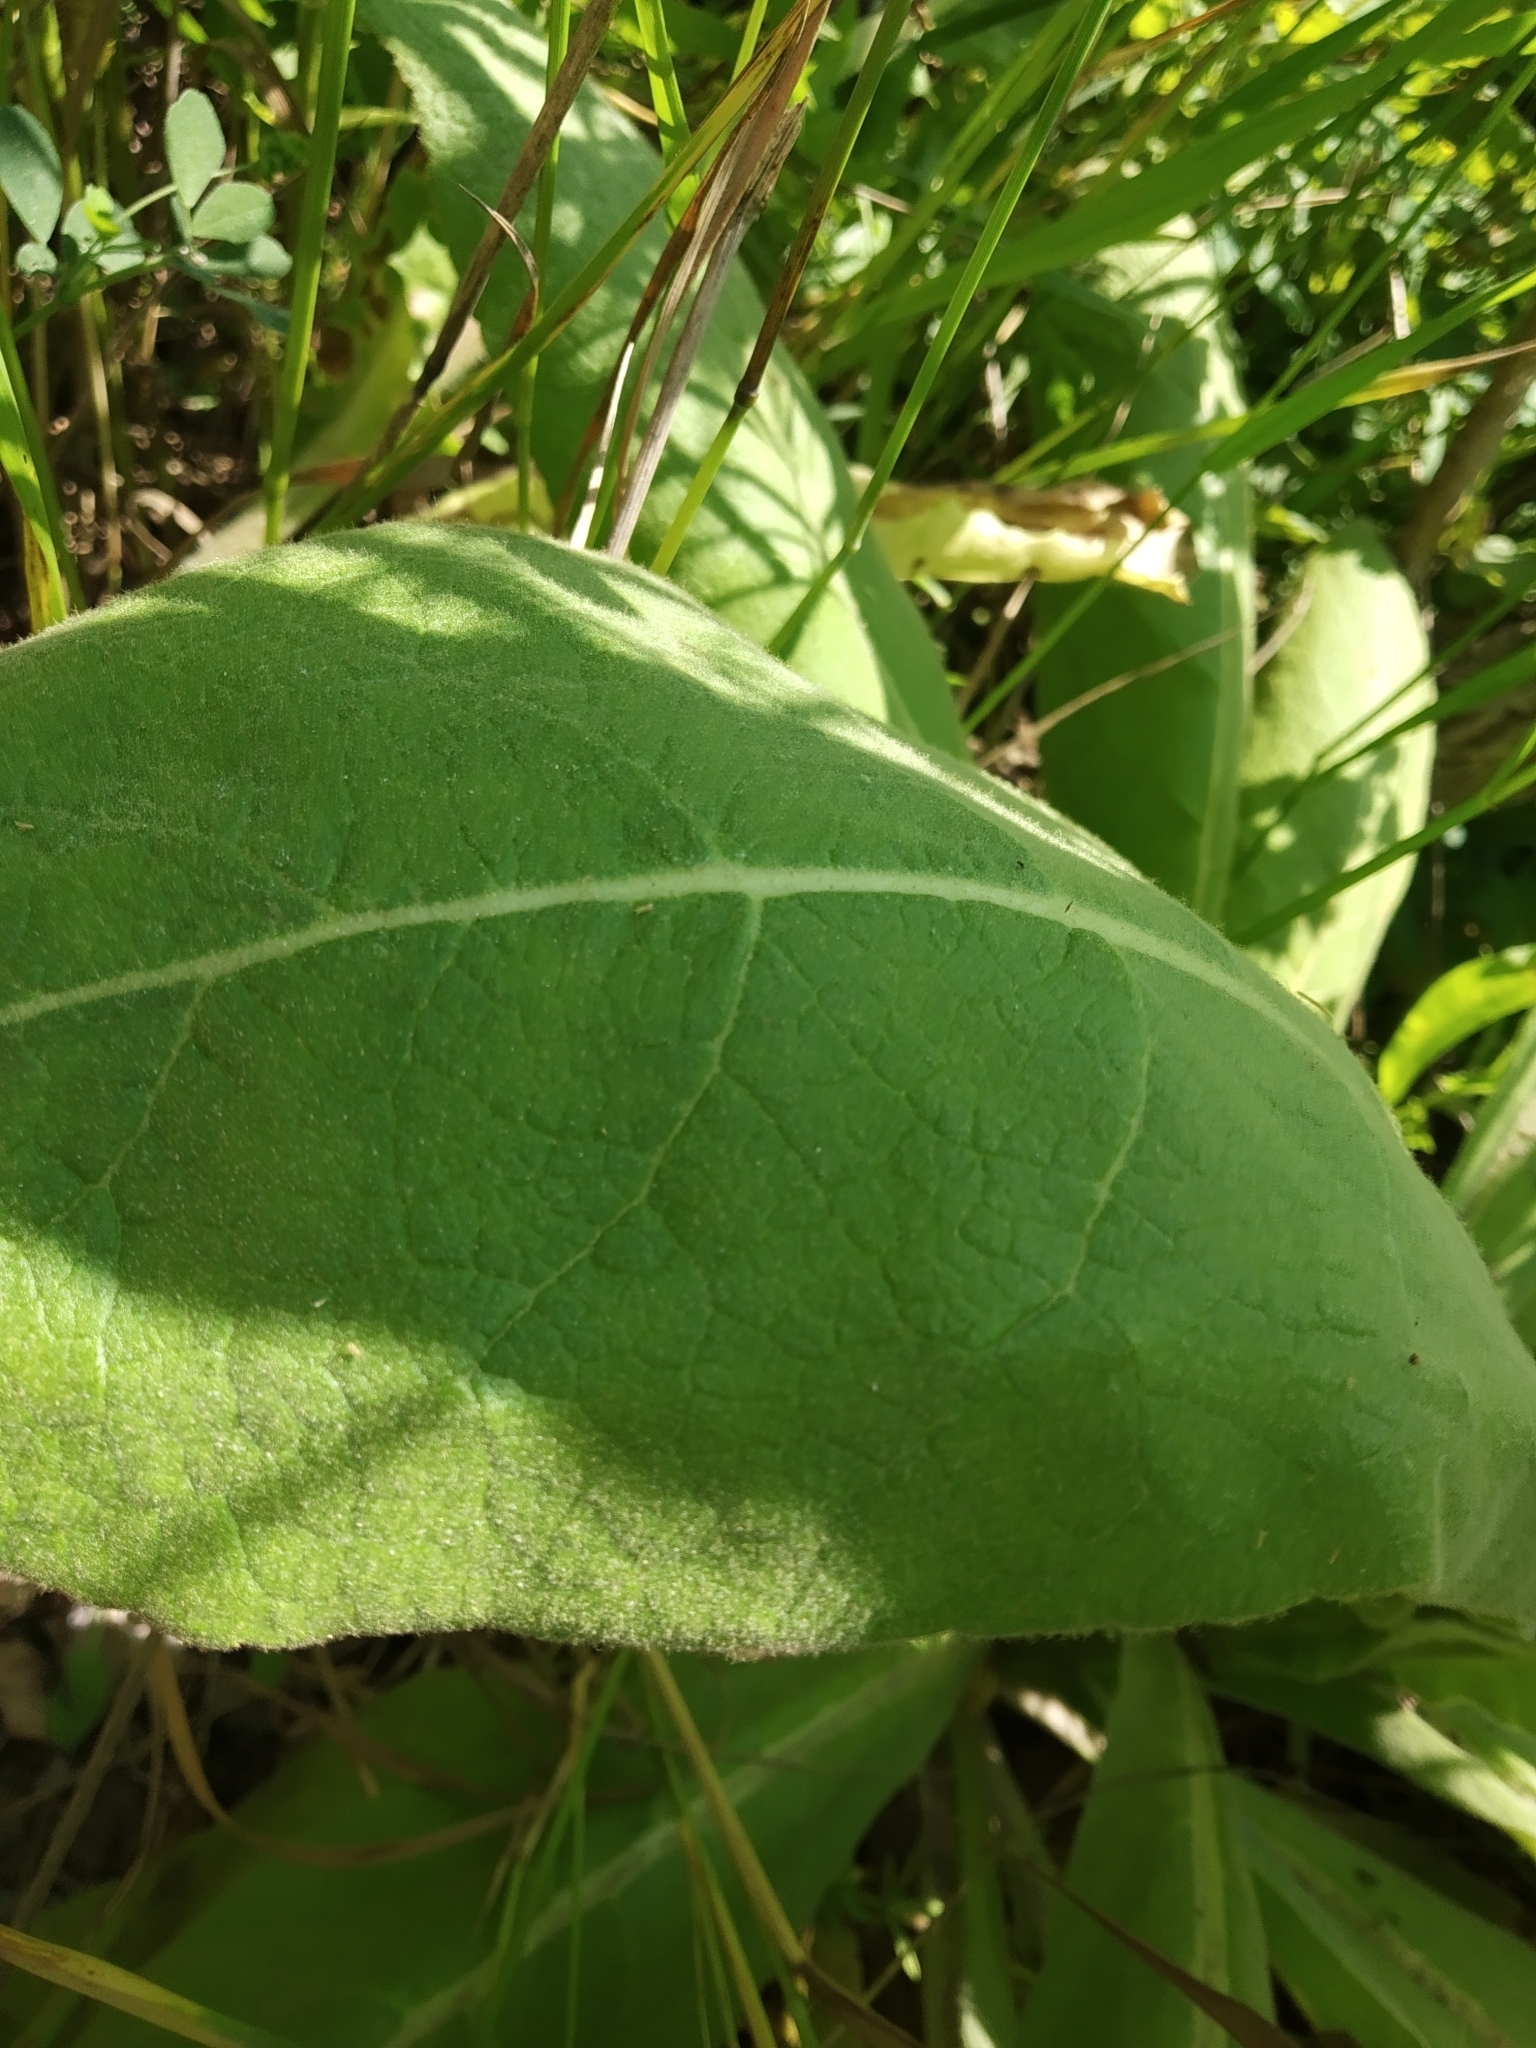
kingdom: Plantae
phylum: Tracheophyta
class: Magnoliopsida
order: Lamiales
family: Scrophulariaceae
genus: Verbascum
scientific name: Verbascum thapsus
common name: Common mullein
